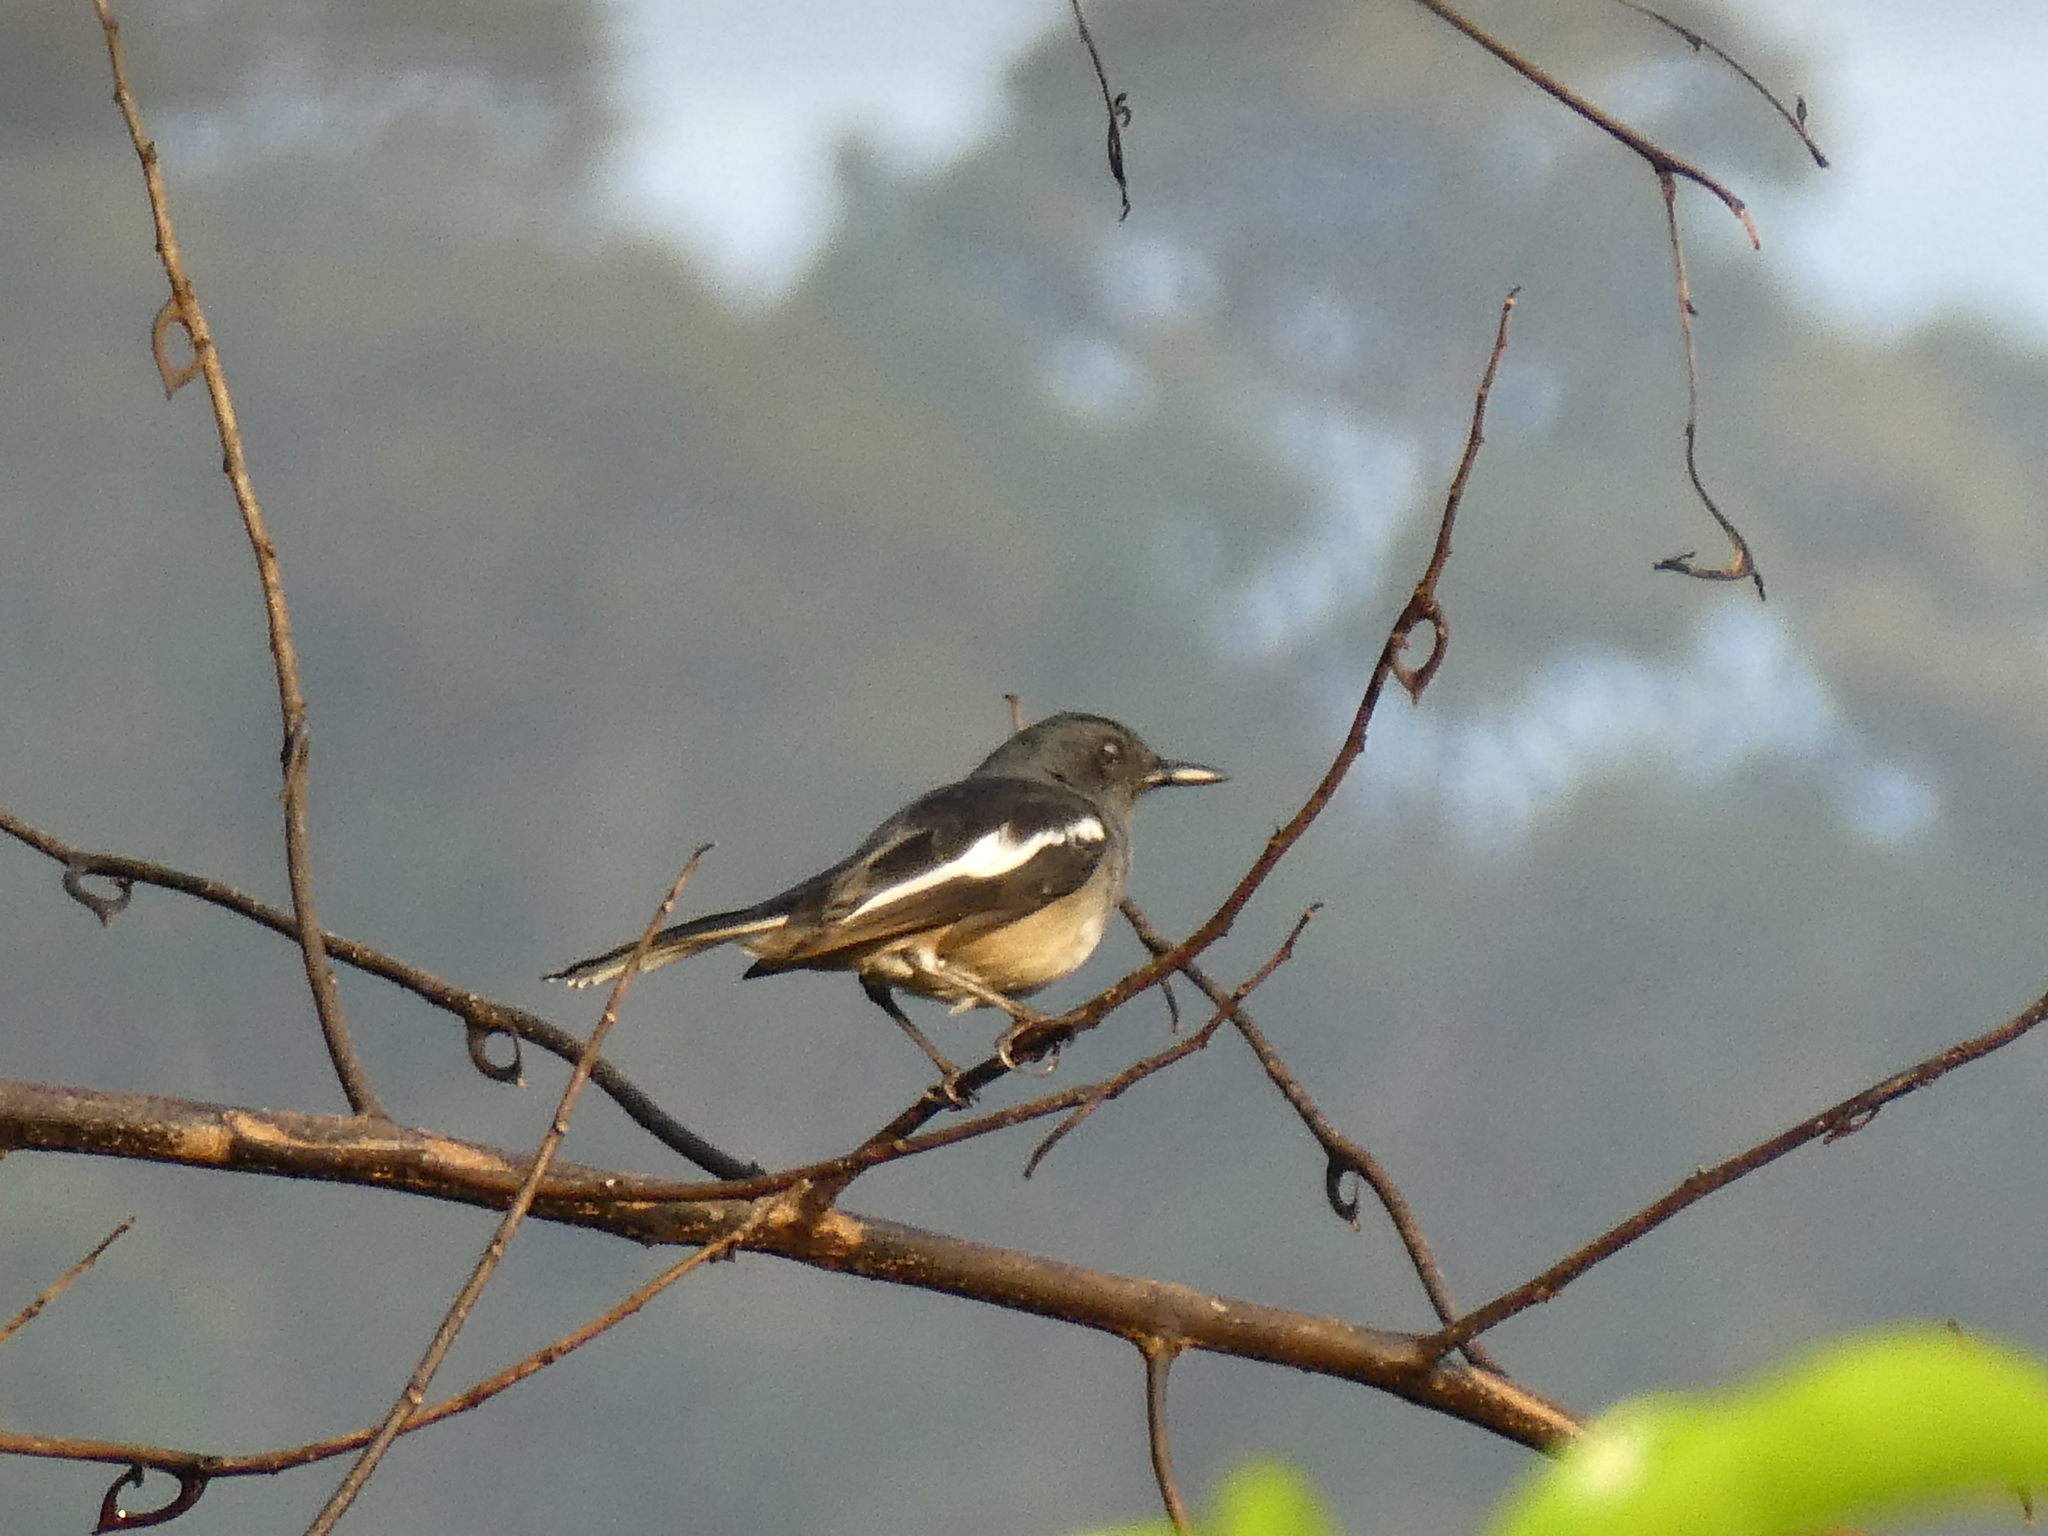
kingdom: Animalia
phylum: Chordata
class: Aves
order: Passeriformes
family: Muscicapidae
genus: Copsychus
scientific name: Copsychus saularis
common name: Oriental magpie-robin
